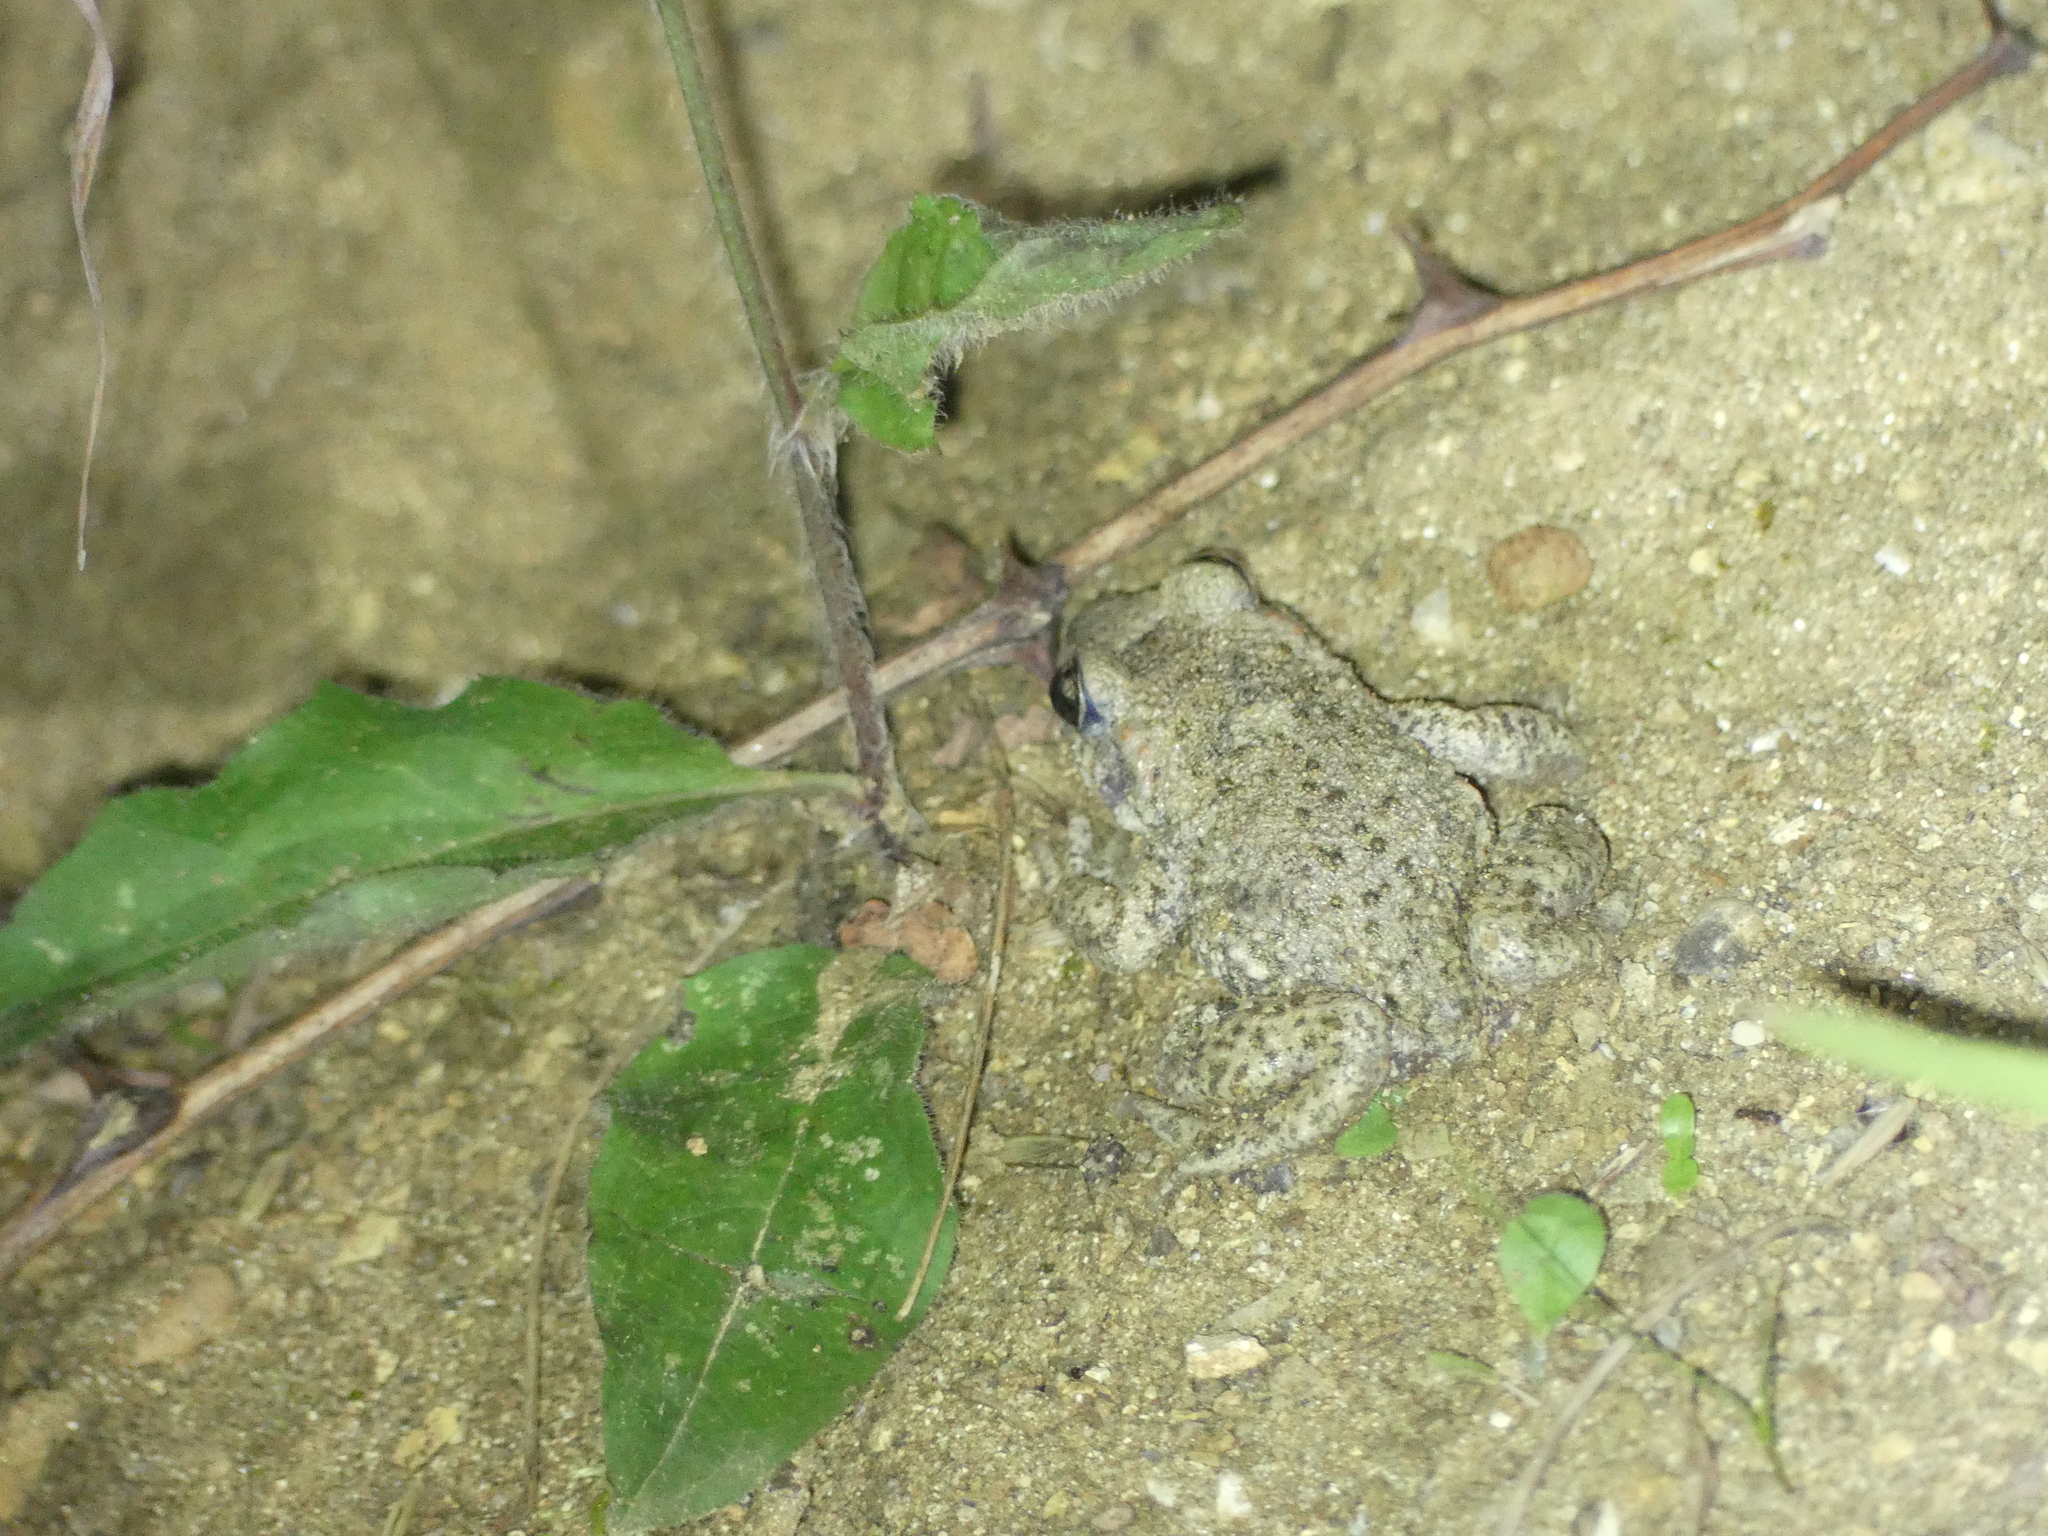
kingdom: Animalia
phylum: Chordata
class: Amphibia
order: Anura
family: Alytidae
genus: Alytes
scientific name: Alytes obstetricans
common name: Midwife toad
